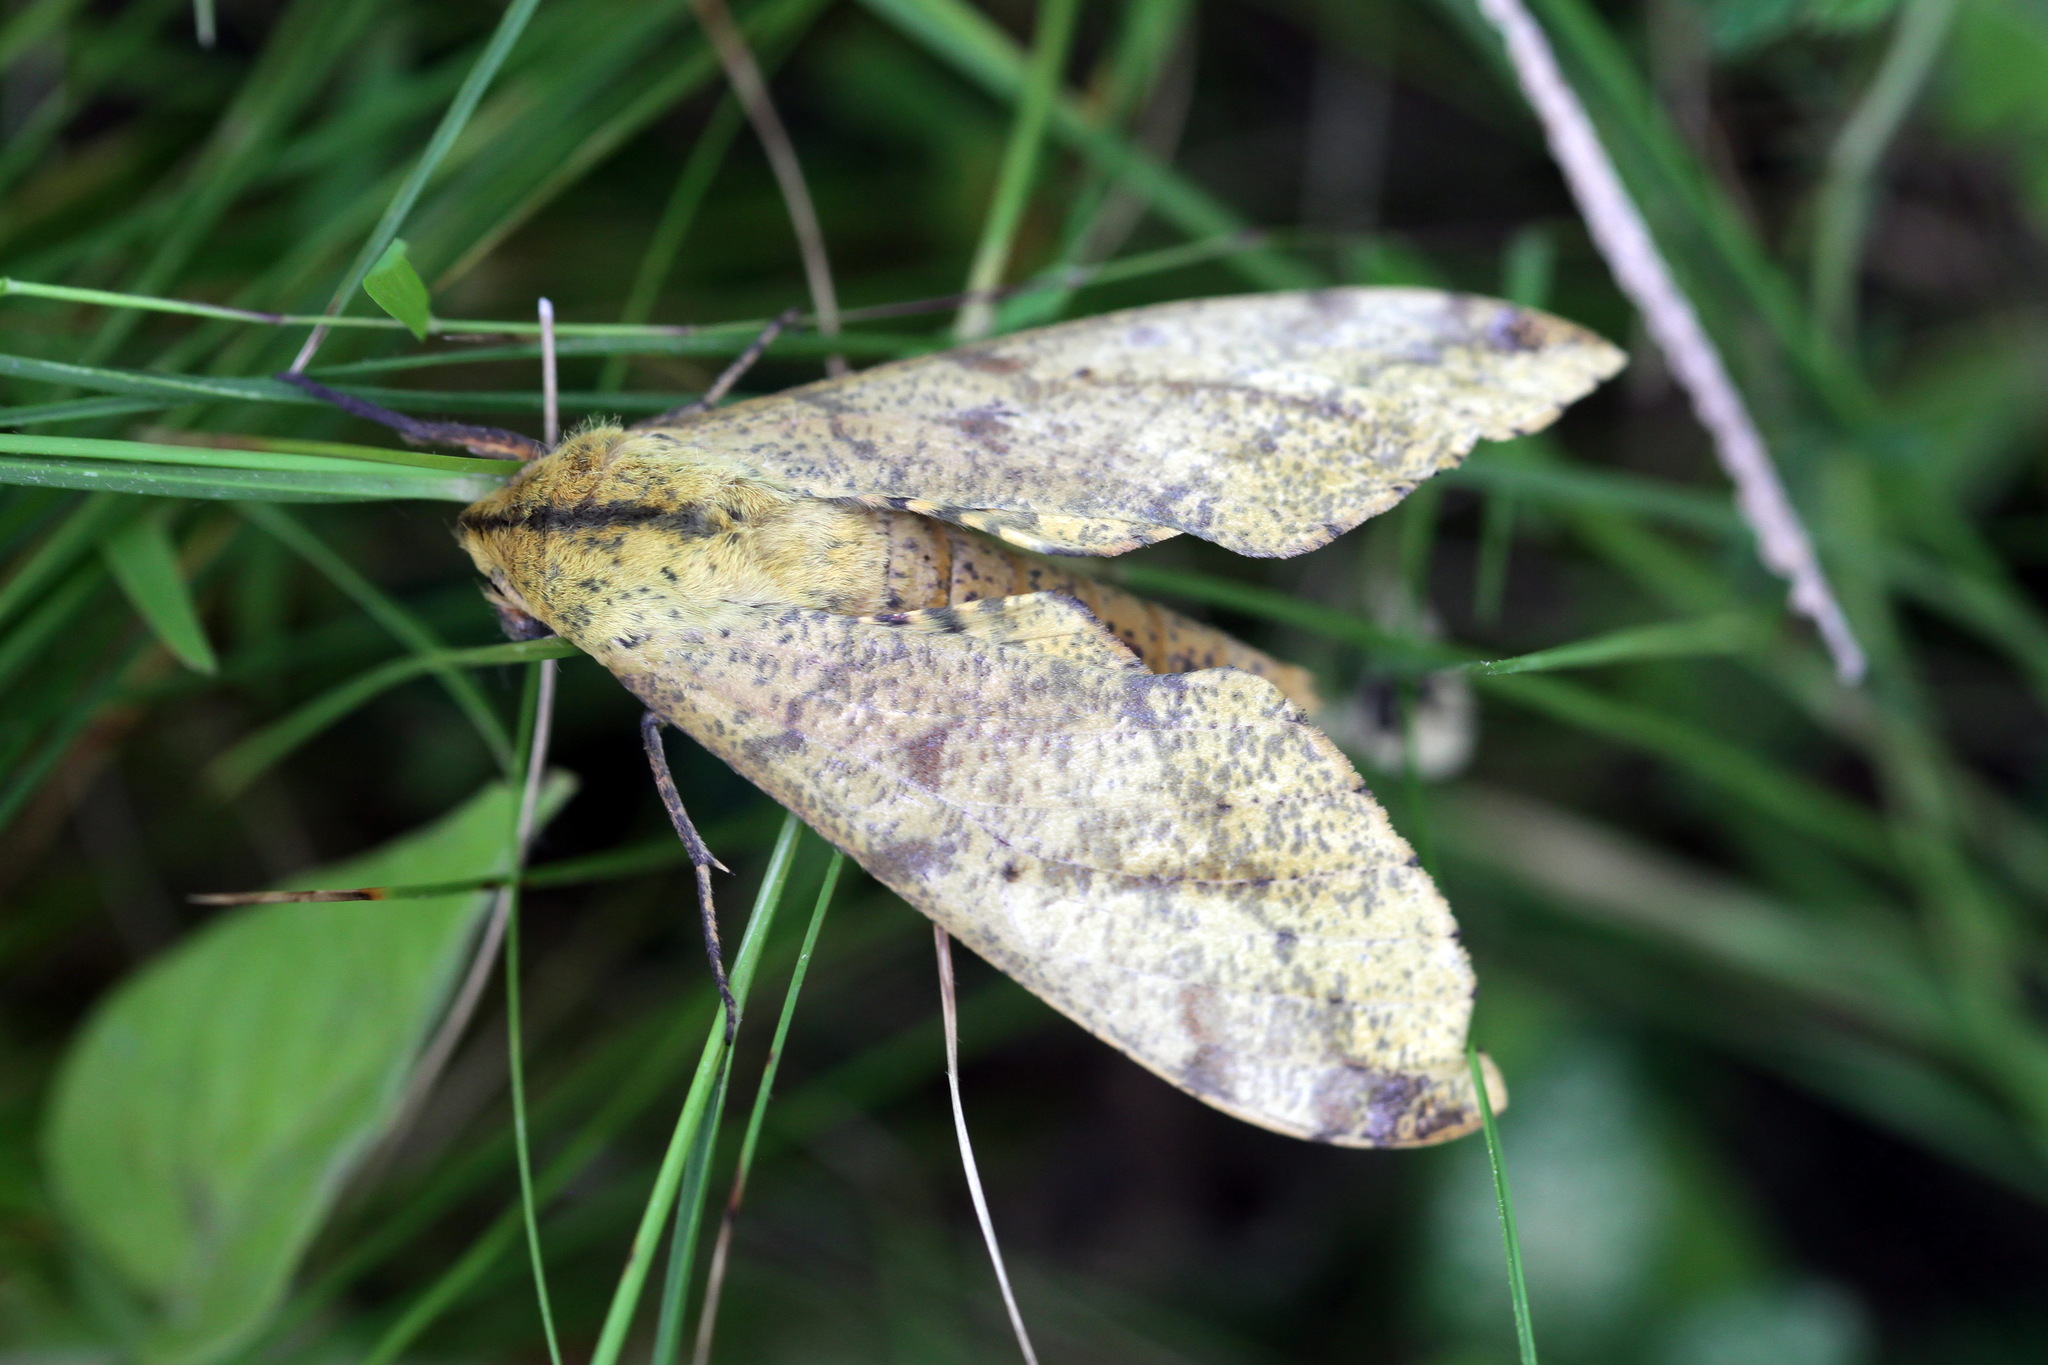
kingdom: Animalia
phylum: Arthropoda
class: Insecta
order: Lepidoptera
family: Sphingidae
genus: Platysphinx
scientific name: Platysphinx piabilis
